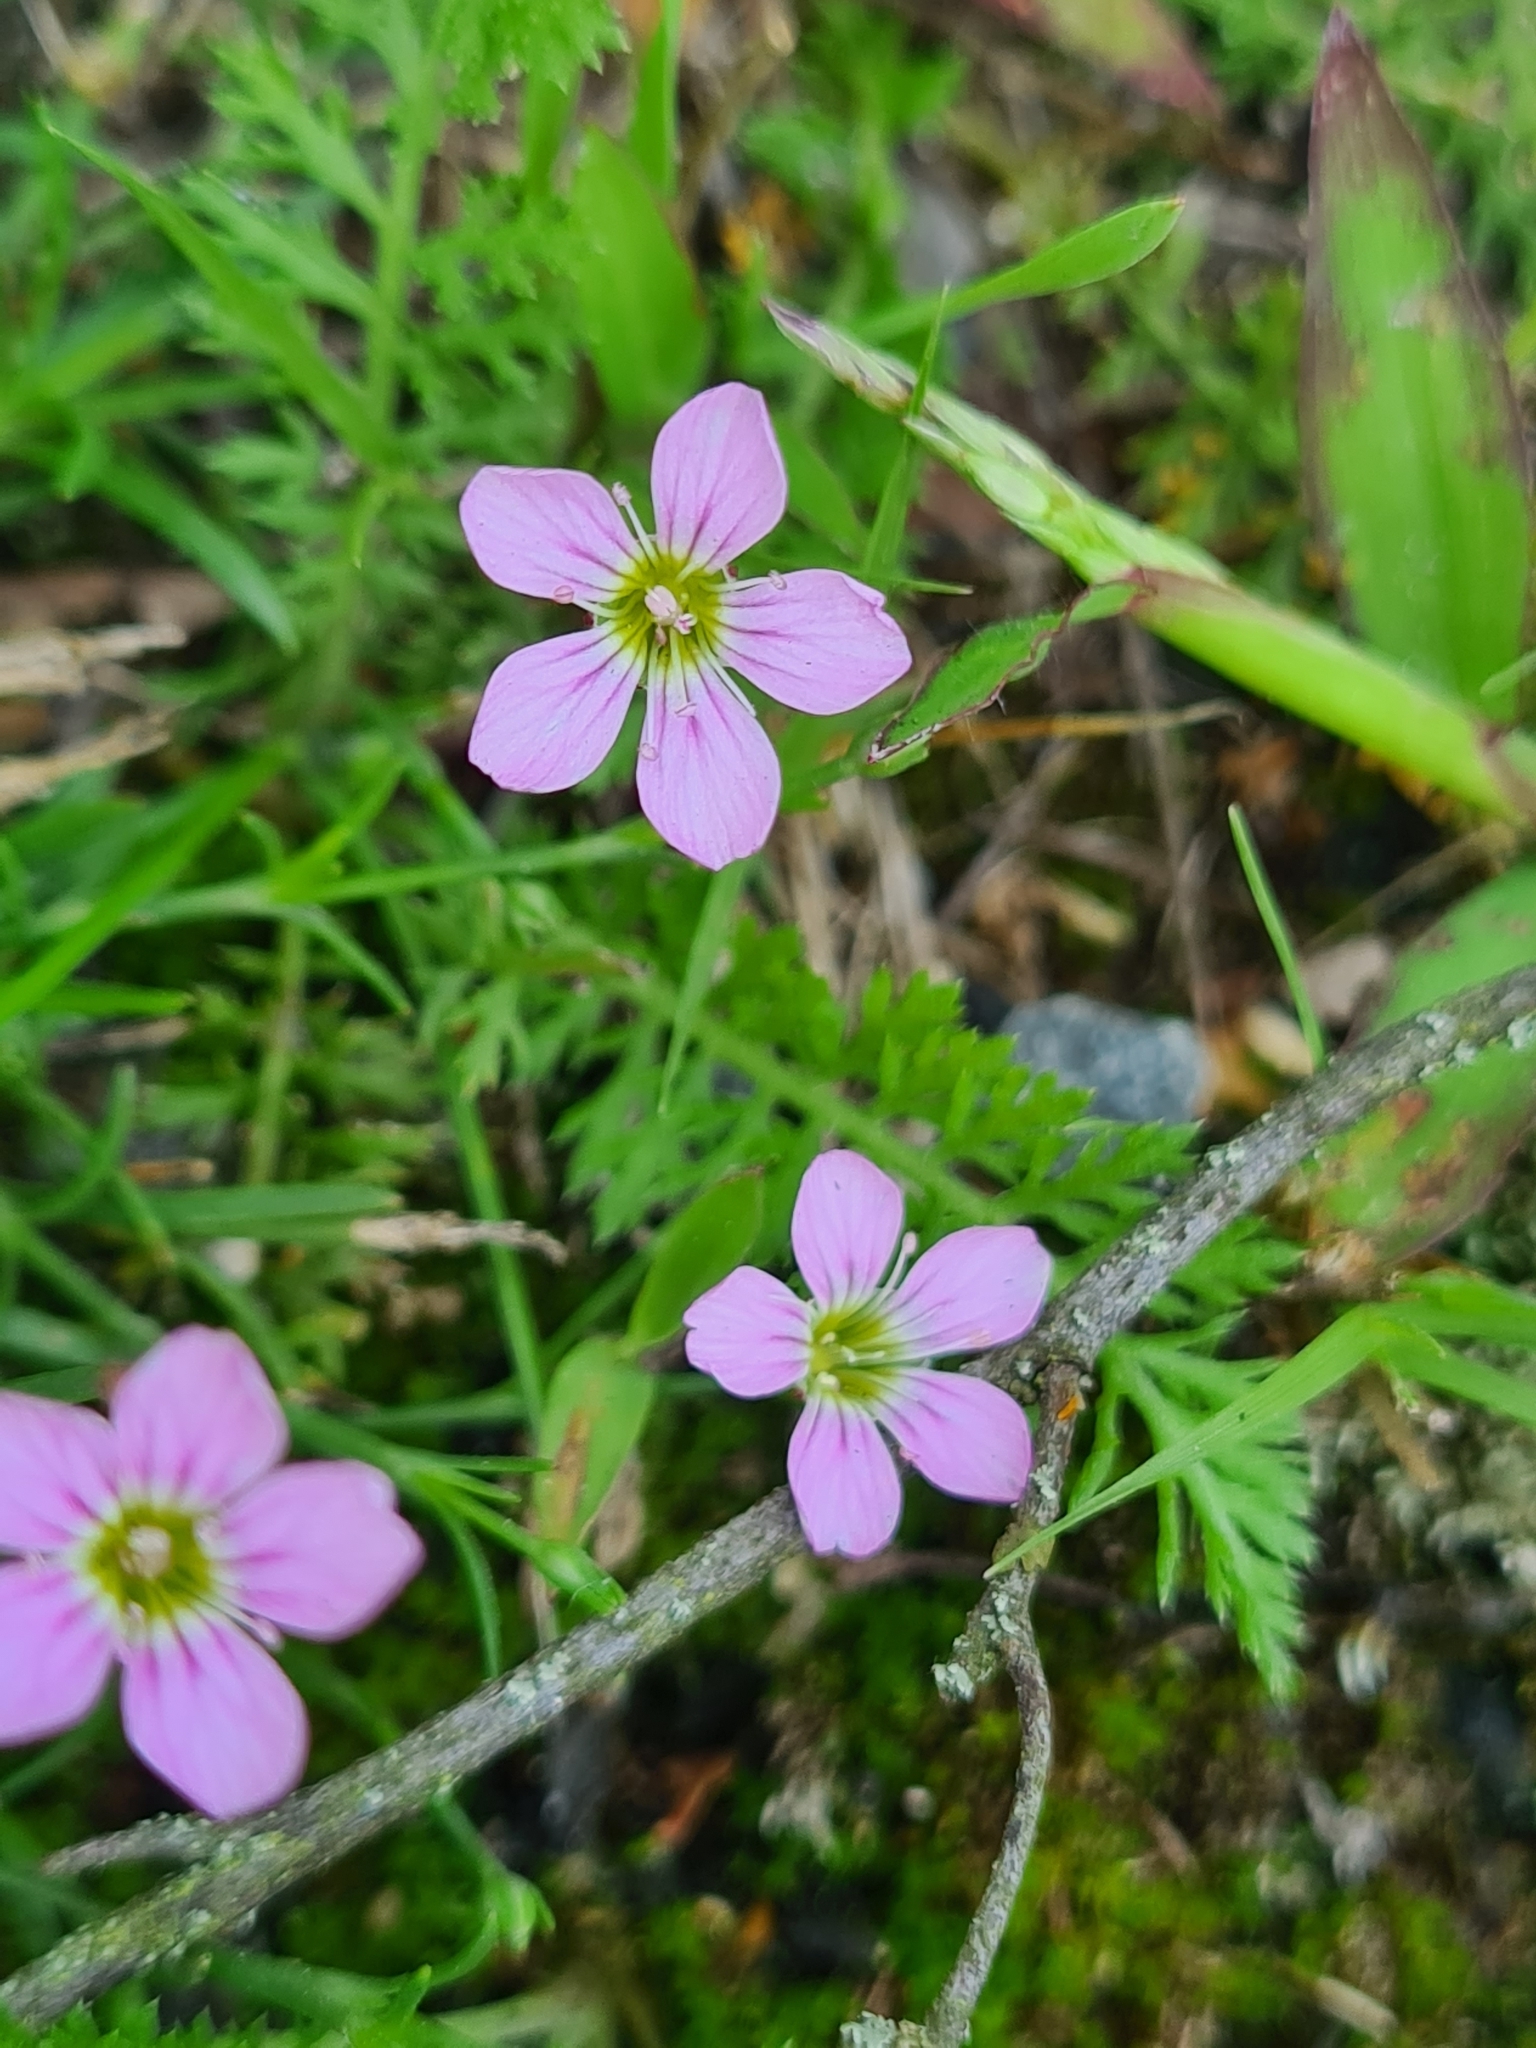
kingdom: Plantae
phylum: Tracheophyta
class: Magnoliopsida
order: Caryophyllales
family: Caryophyllaceae
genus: Petrorhagia
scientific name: Petrorhagia saxifraga
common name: Tunicflower
